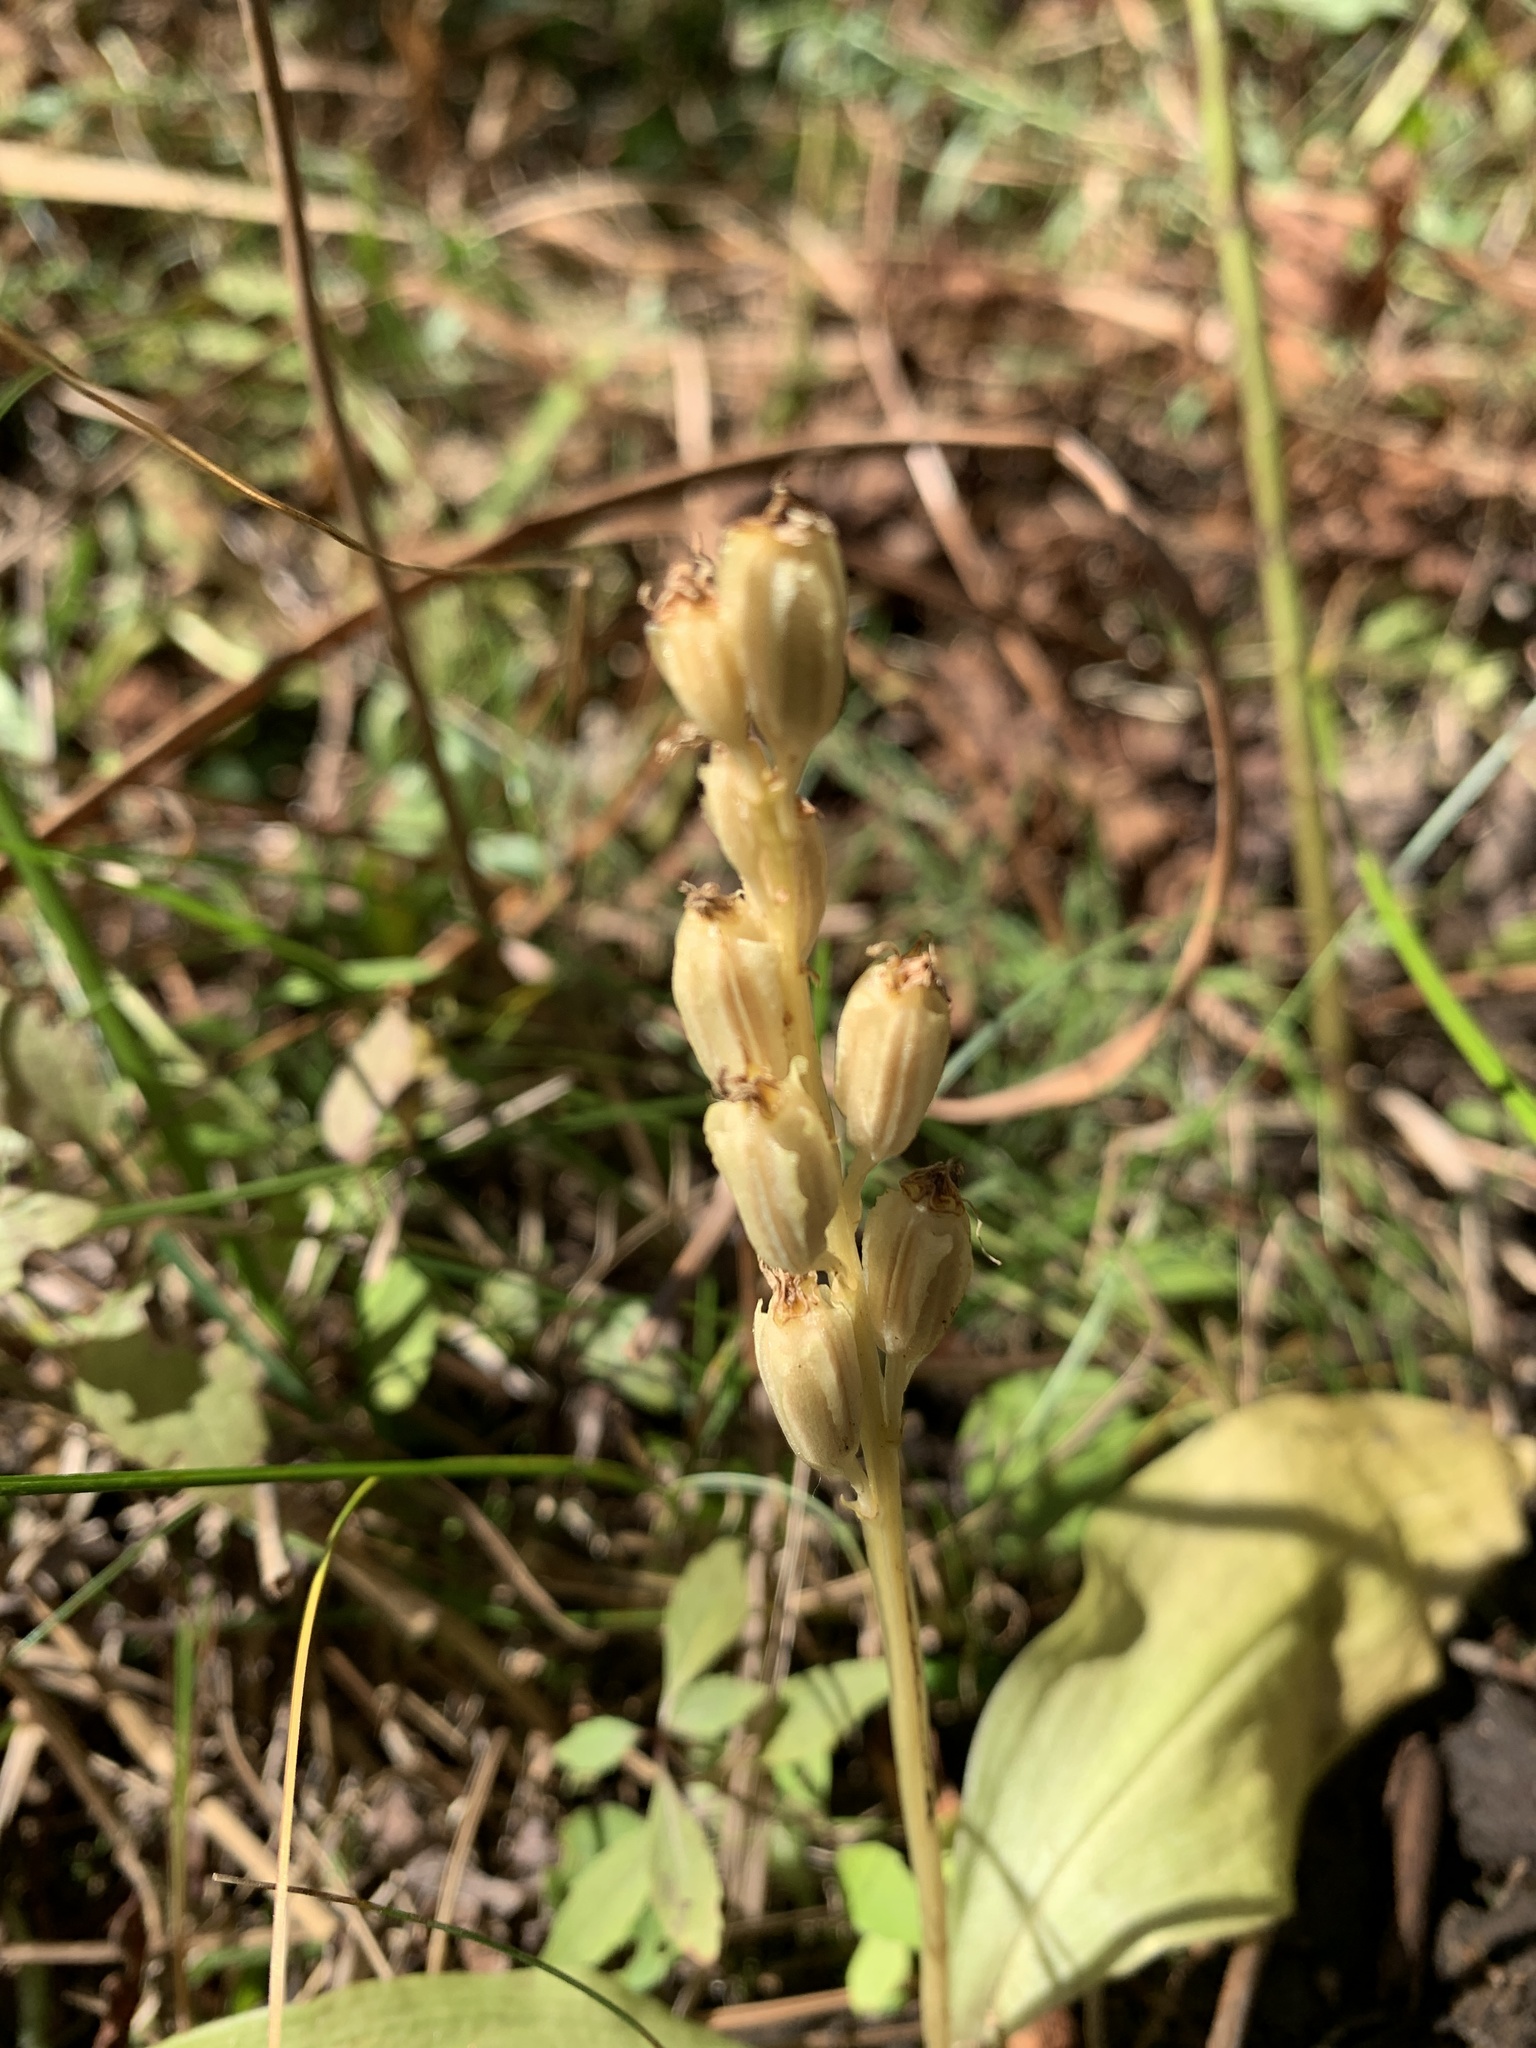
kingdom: Animalia
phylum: Arthropoda
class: Insecta
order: Coleoptera
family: Curculionidae
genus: Liparis
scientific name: Liparis loeselii
